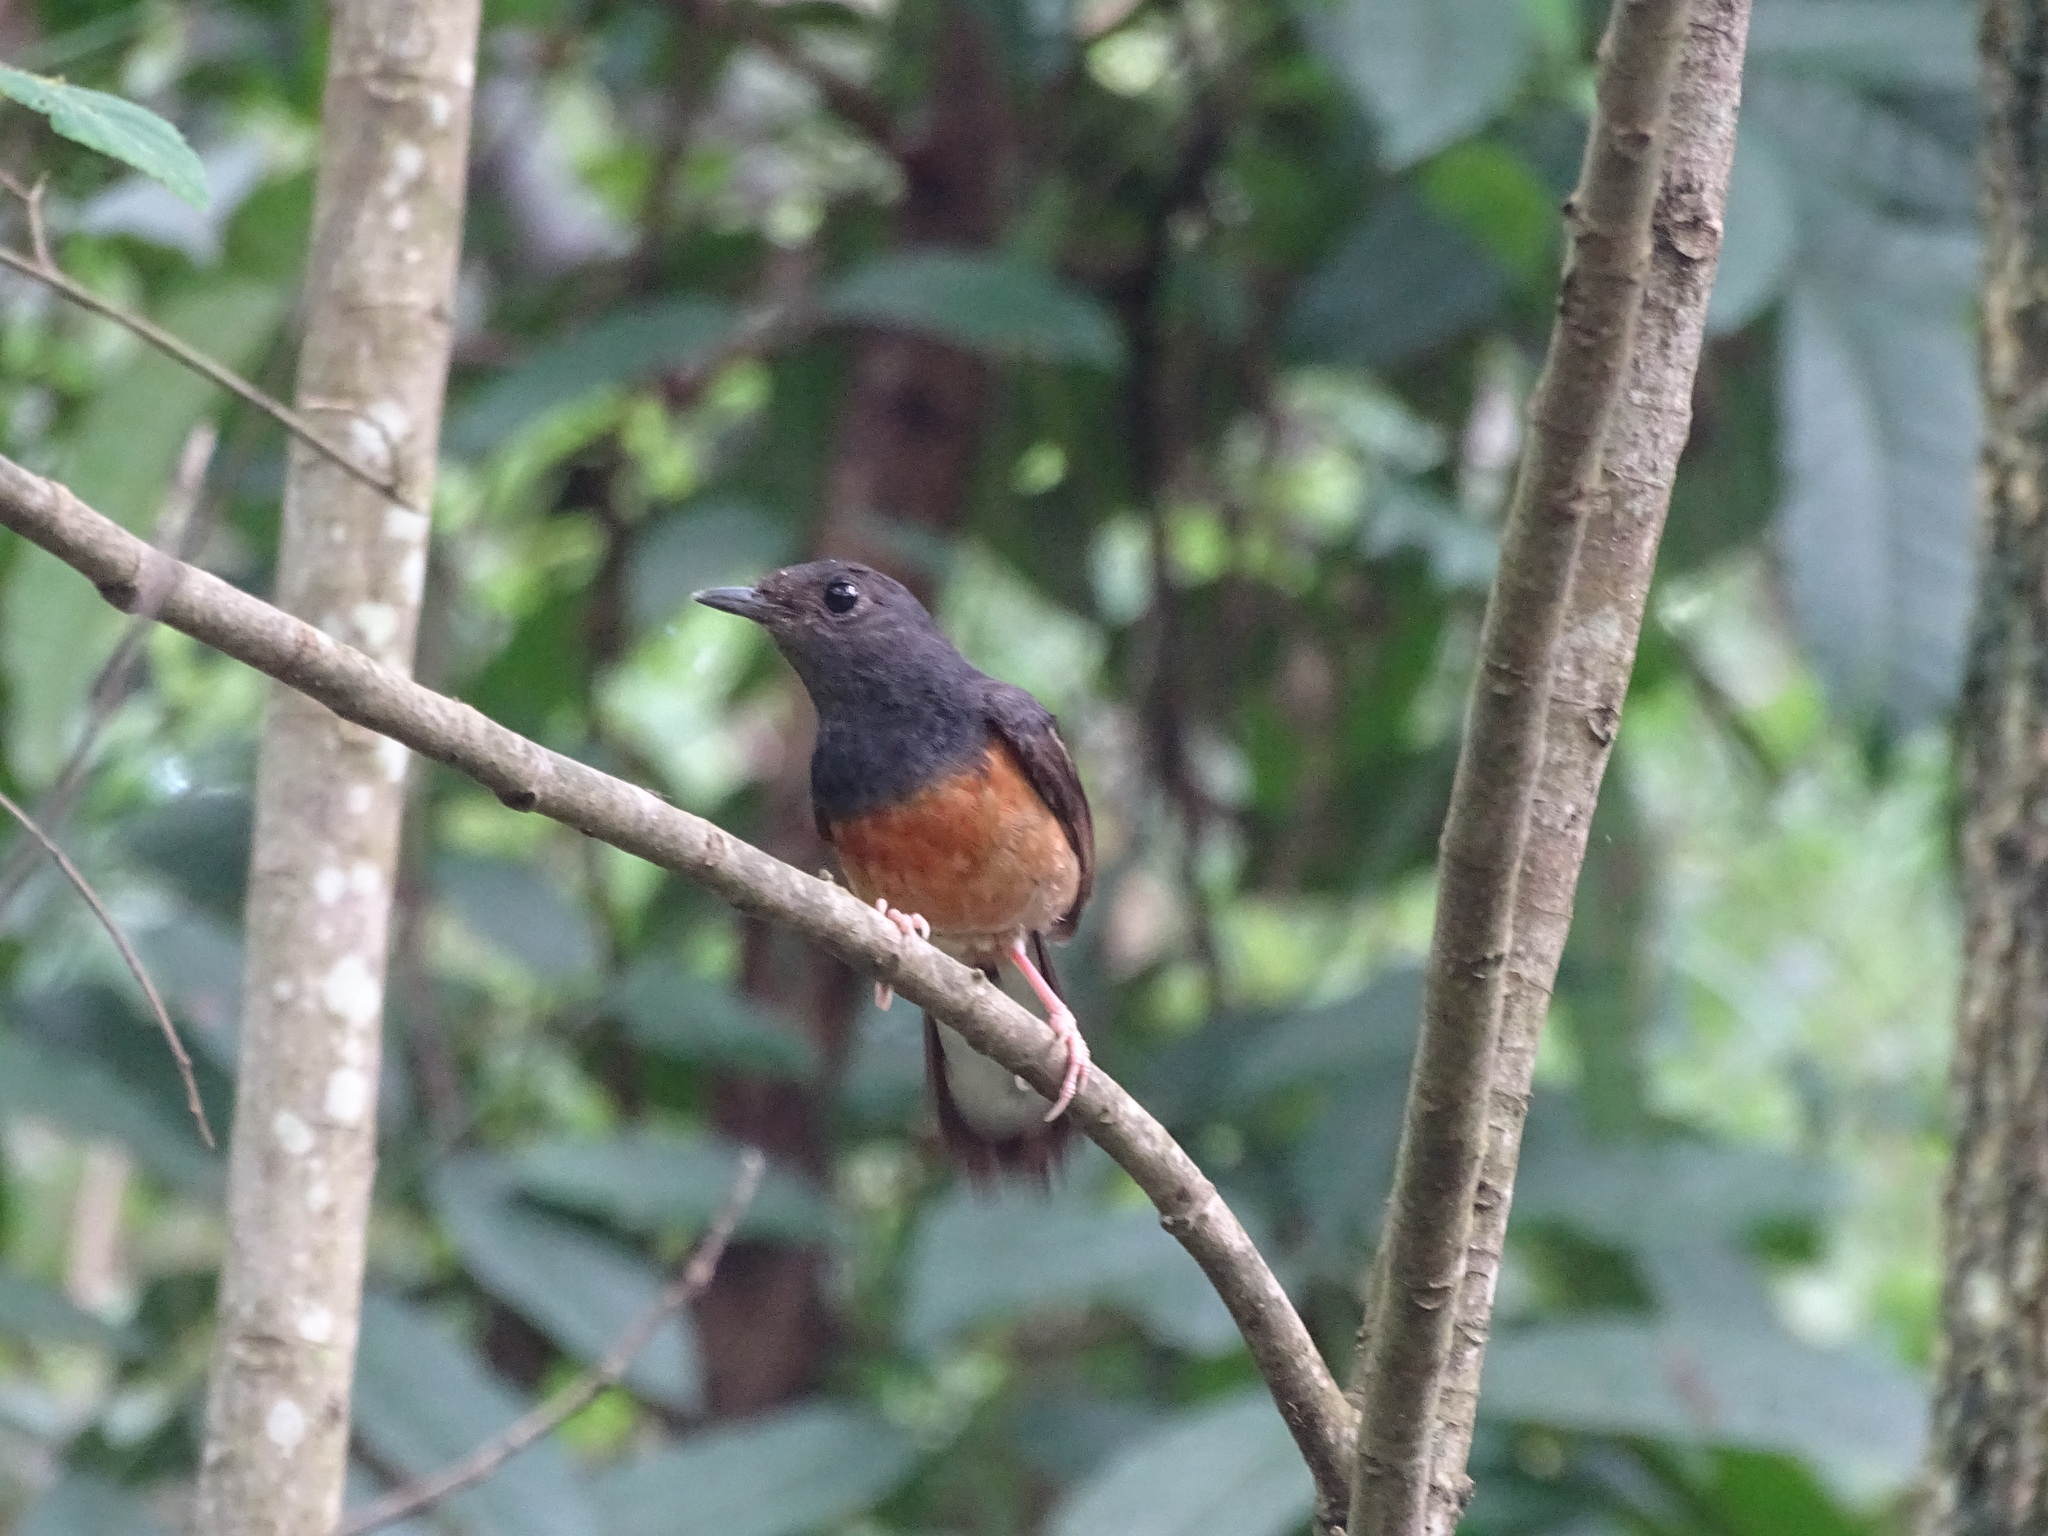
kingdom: Animalia
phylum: Chordata
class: Aves
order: Passeriformes
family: Muscicapidae
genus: Copsychus
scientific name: Copsychus malabaricus
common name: White-rumped shama
